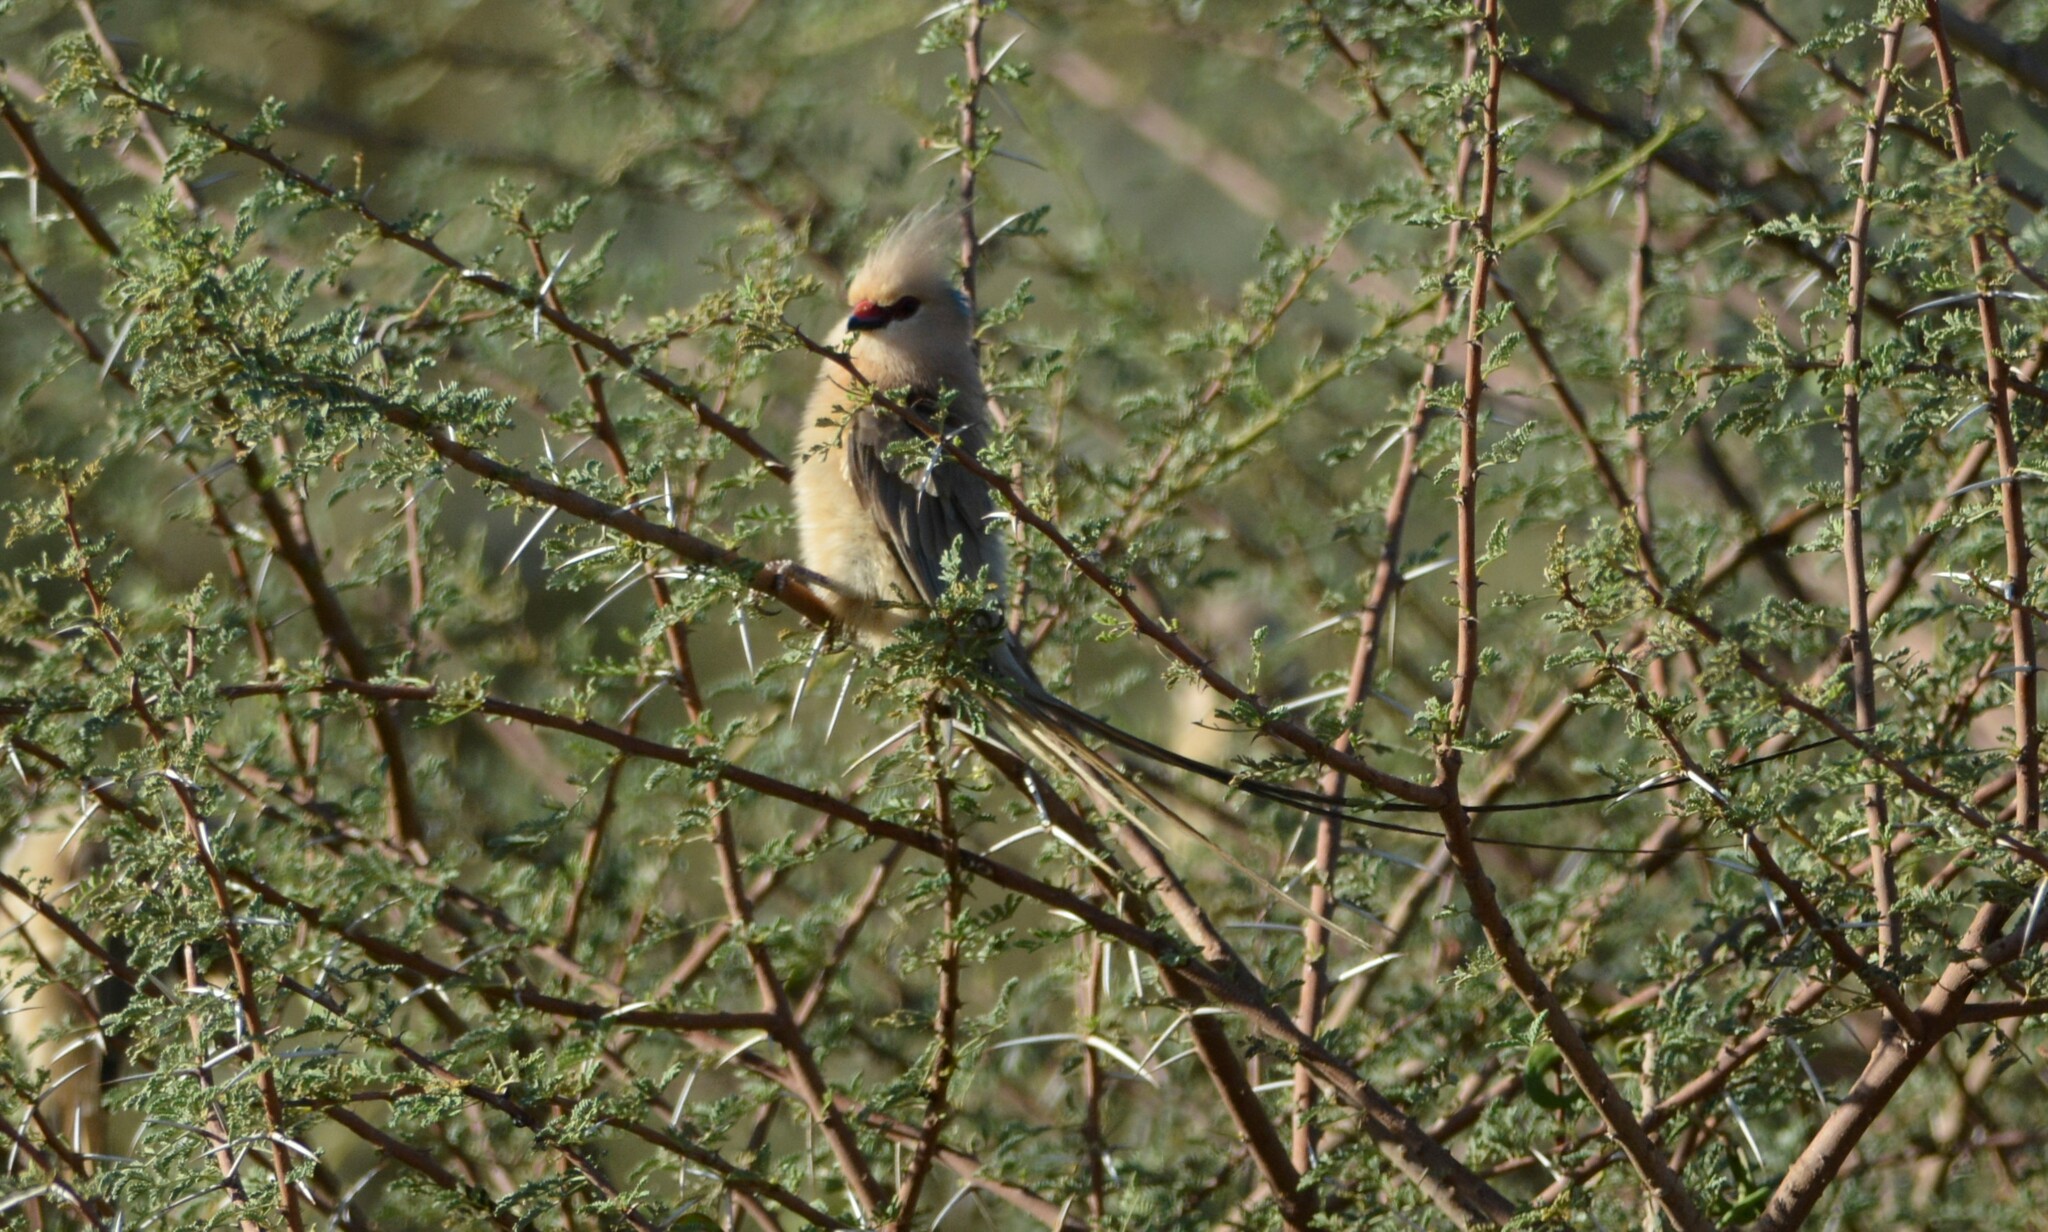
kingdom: Animalia
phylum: Chordata
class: Aves
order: Coliiformes
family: Coliidae
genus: Urocolius
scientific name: Urocolius macrourus
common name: Blue-naped mousebird
